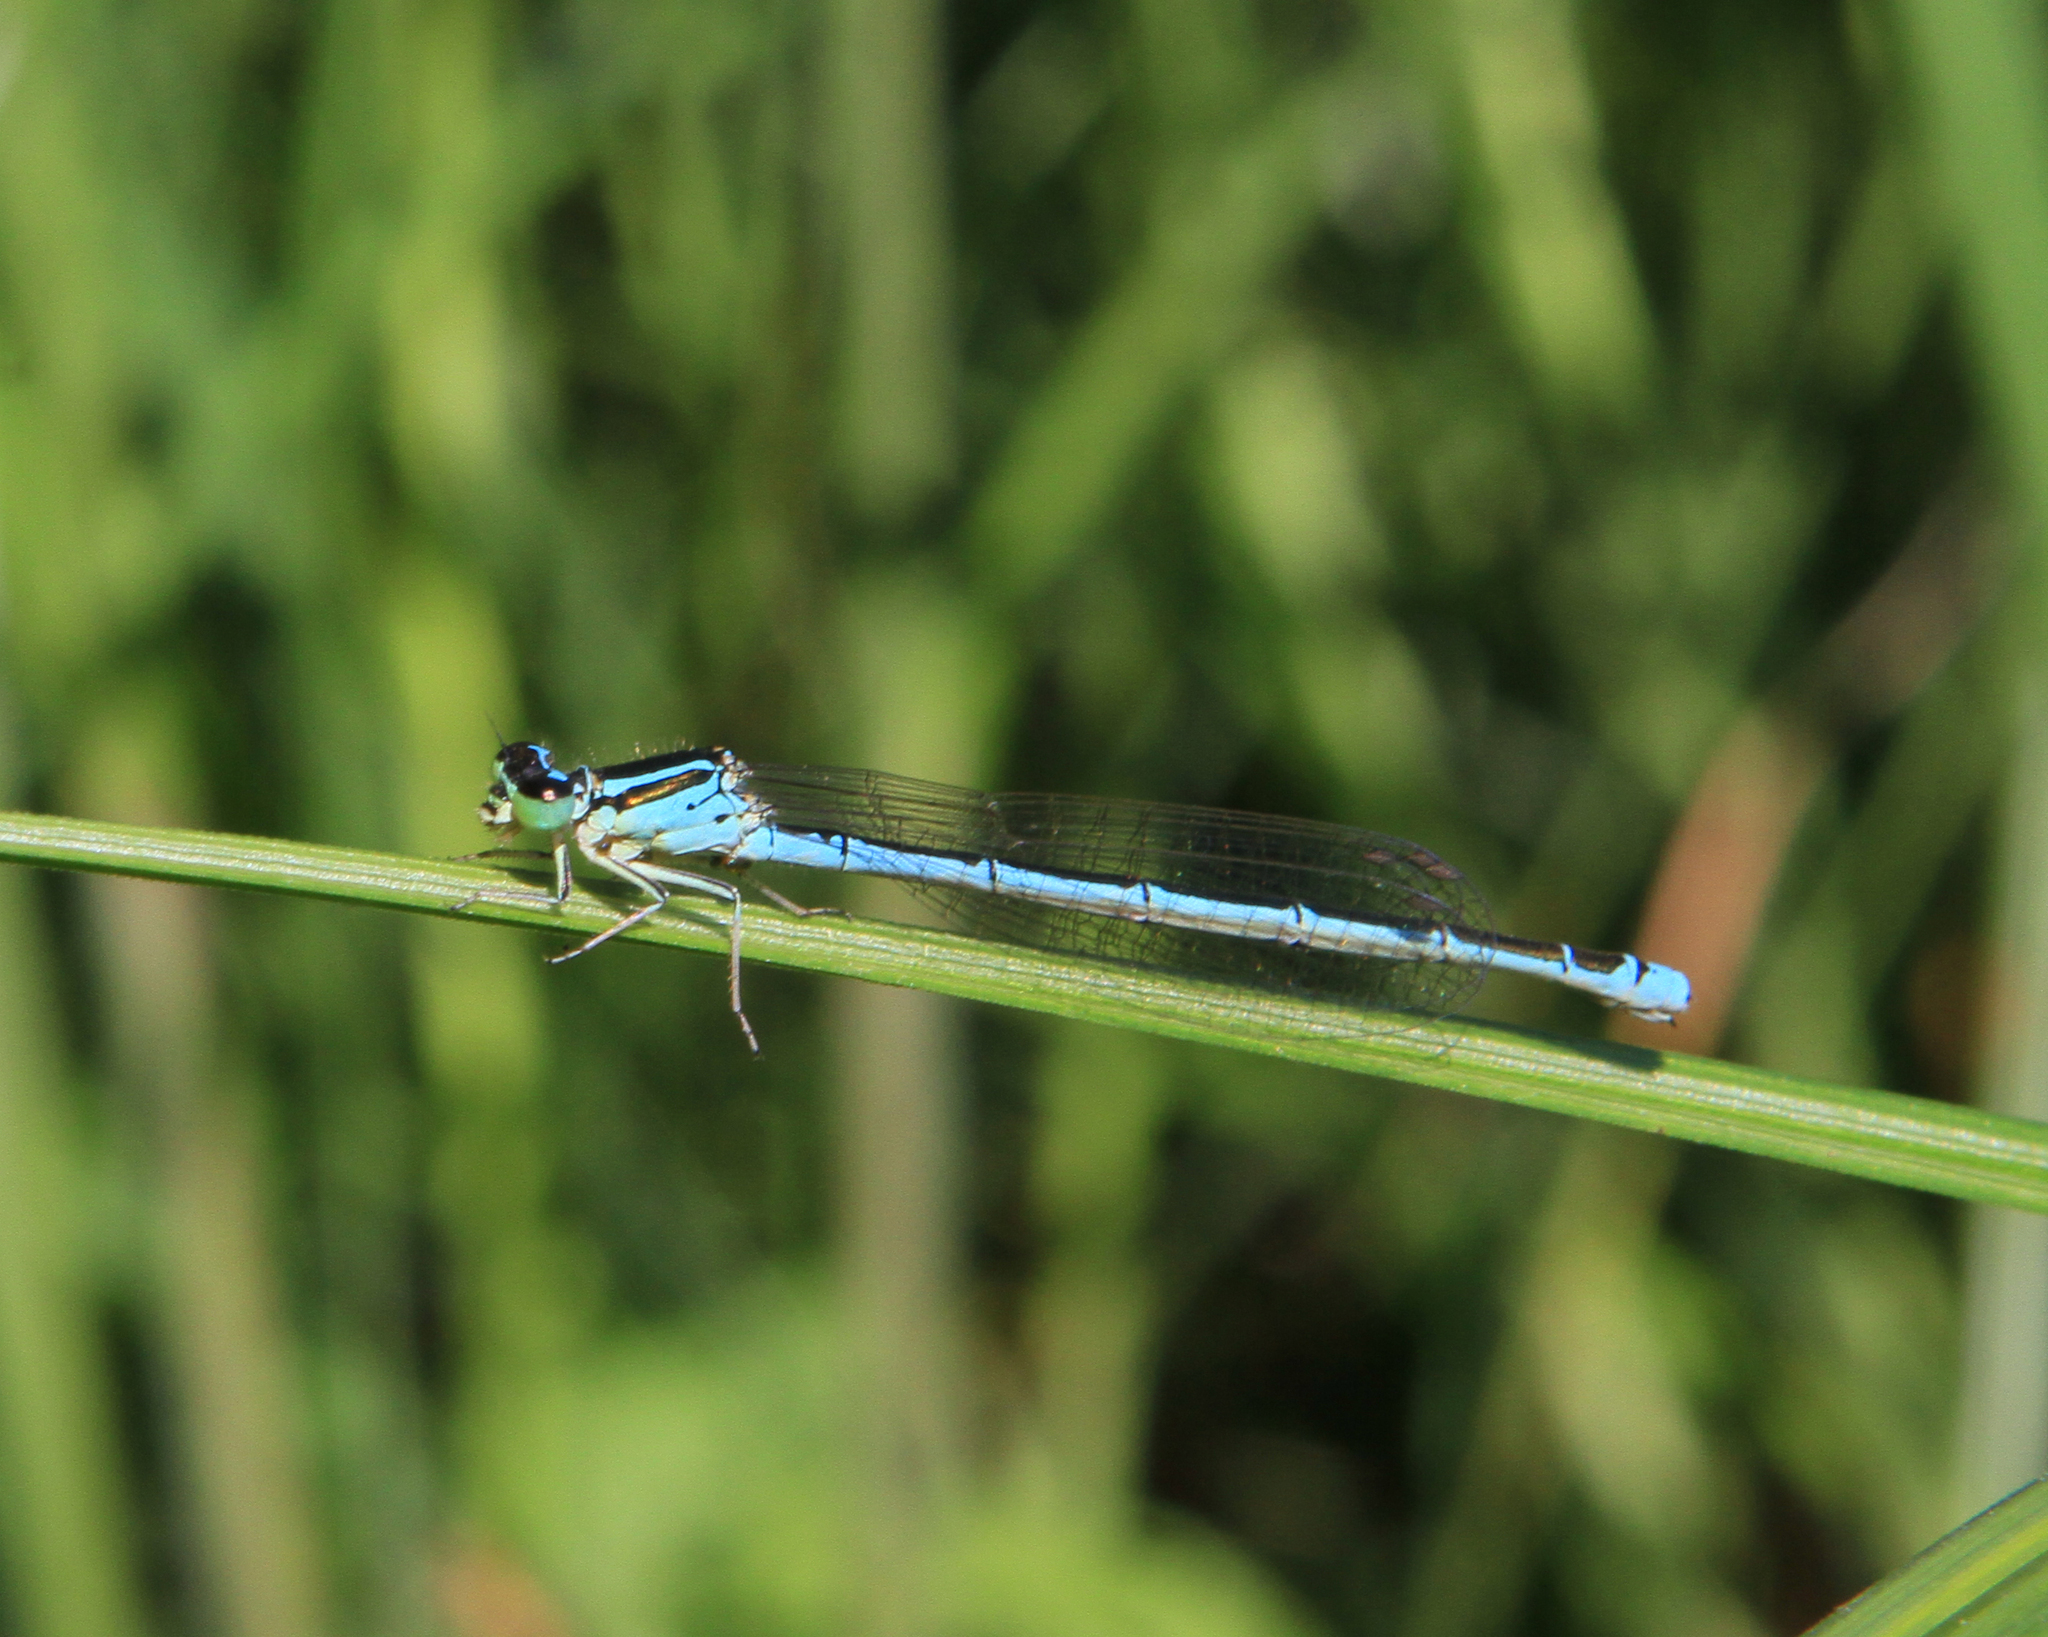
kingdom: Animalia
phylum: Arthropoda
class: Insecta
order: Odonata
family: Coenagrionidae
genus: Coenagrion
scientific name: Coenagrion ecornutum
